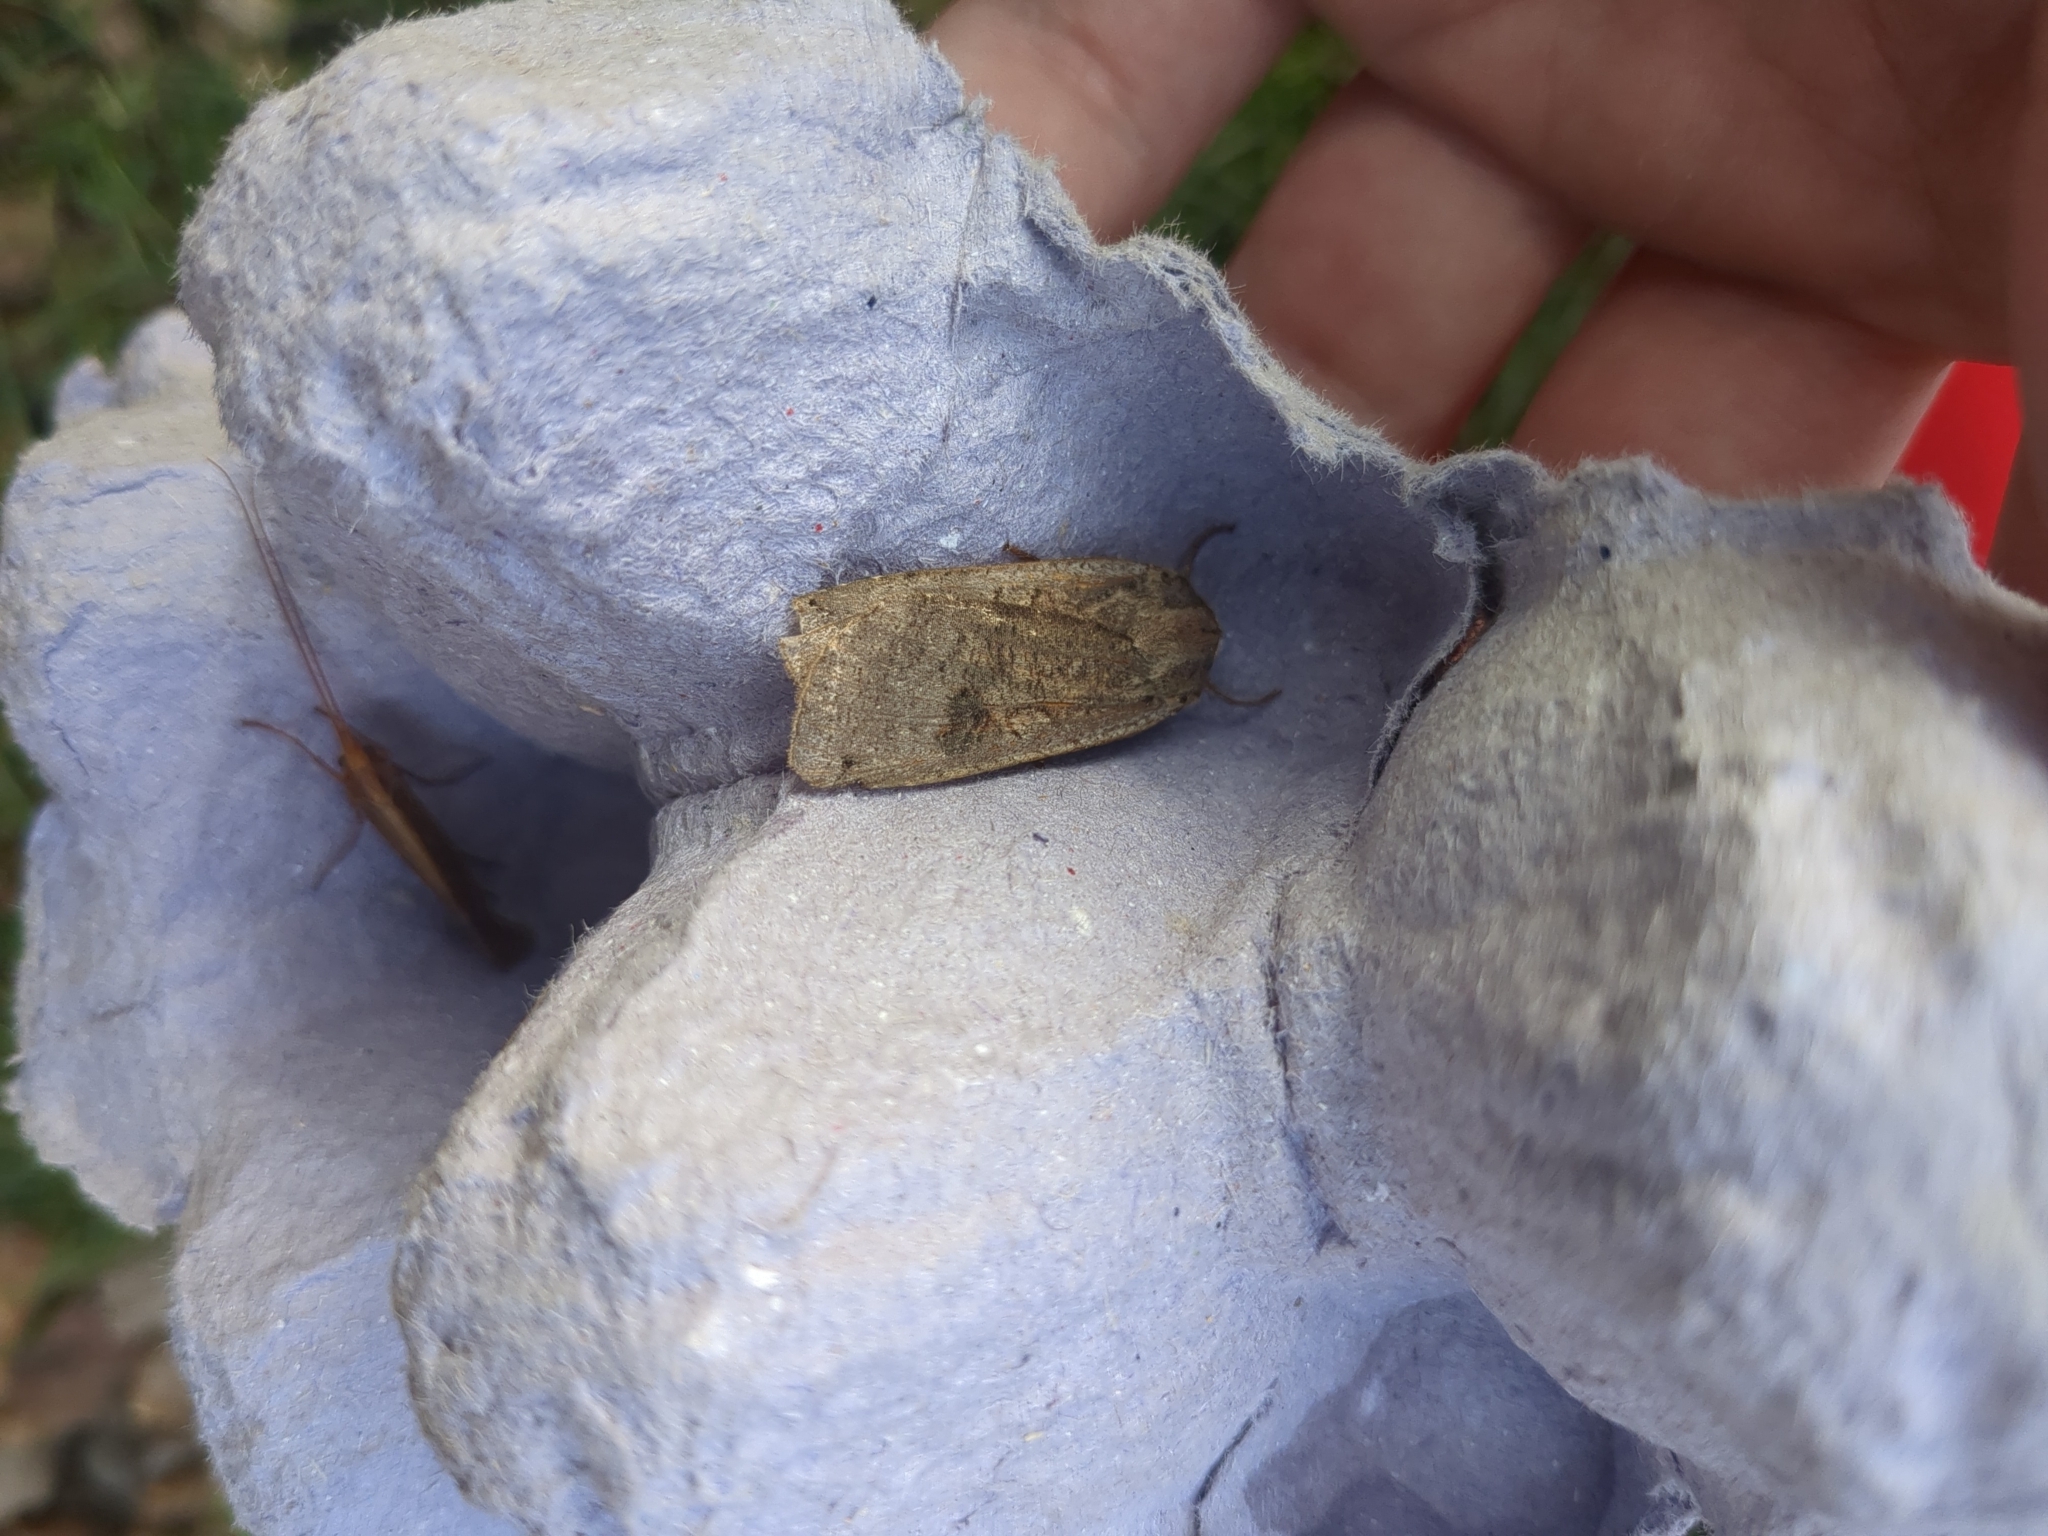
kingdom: Animalia
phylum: Arthropoda
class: Insecta
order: Lepidoptera
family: Noctuidae
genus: Noctua
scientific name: Noctua pronuba
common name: Large yellow underwing
